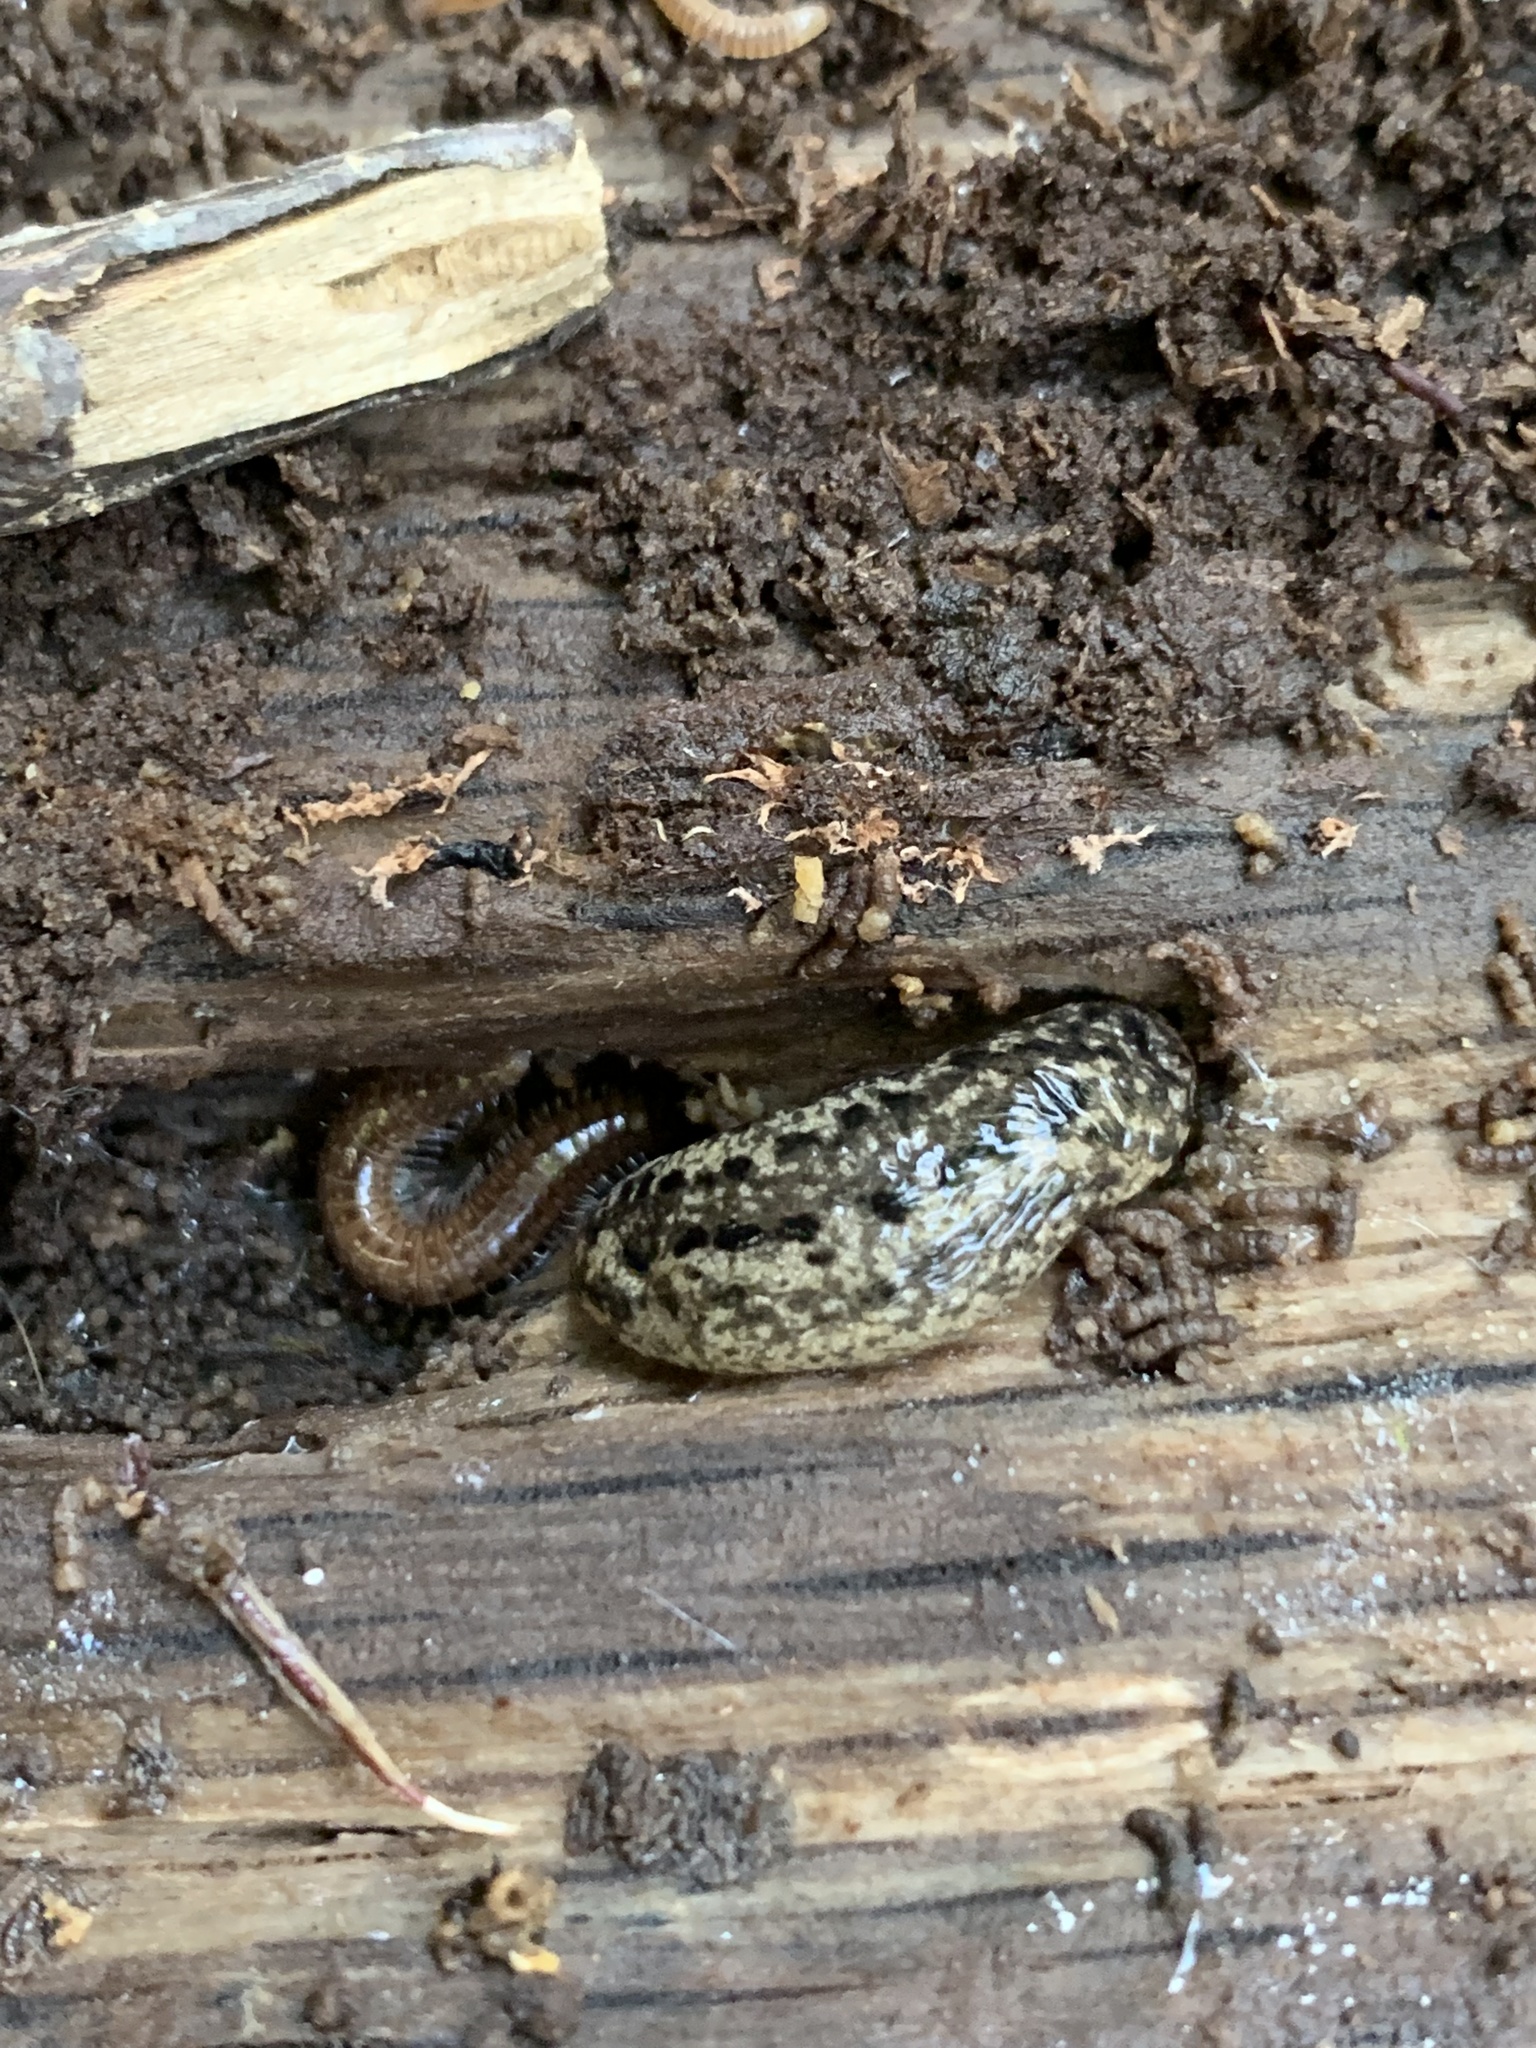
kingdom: Animalia
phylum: Mollusca
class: Gastropoda
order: Stylommatophora
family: Philomycidae
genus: Philomycus
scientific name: Philomycus carolinianus
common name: Carolina mantleslug
